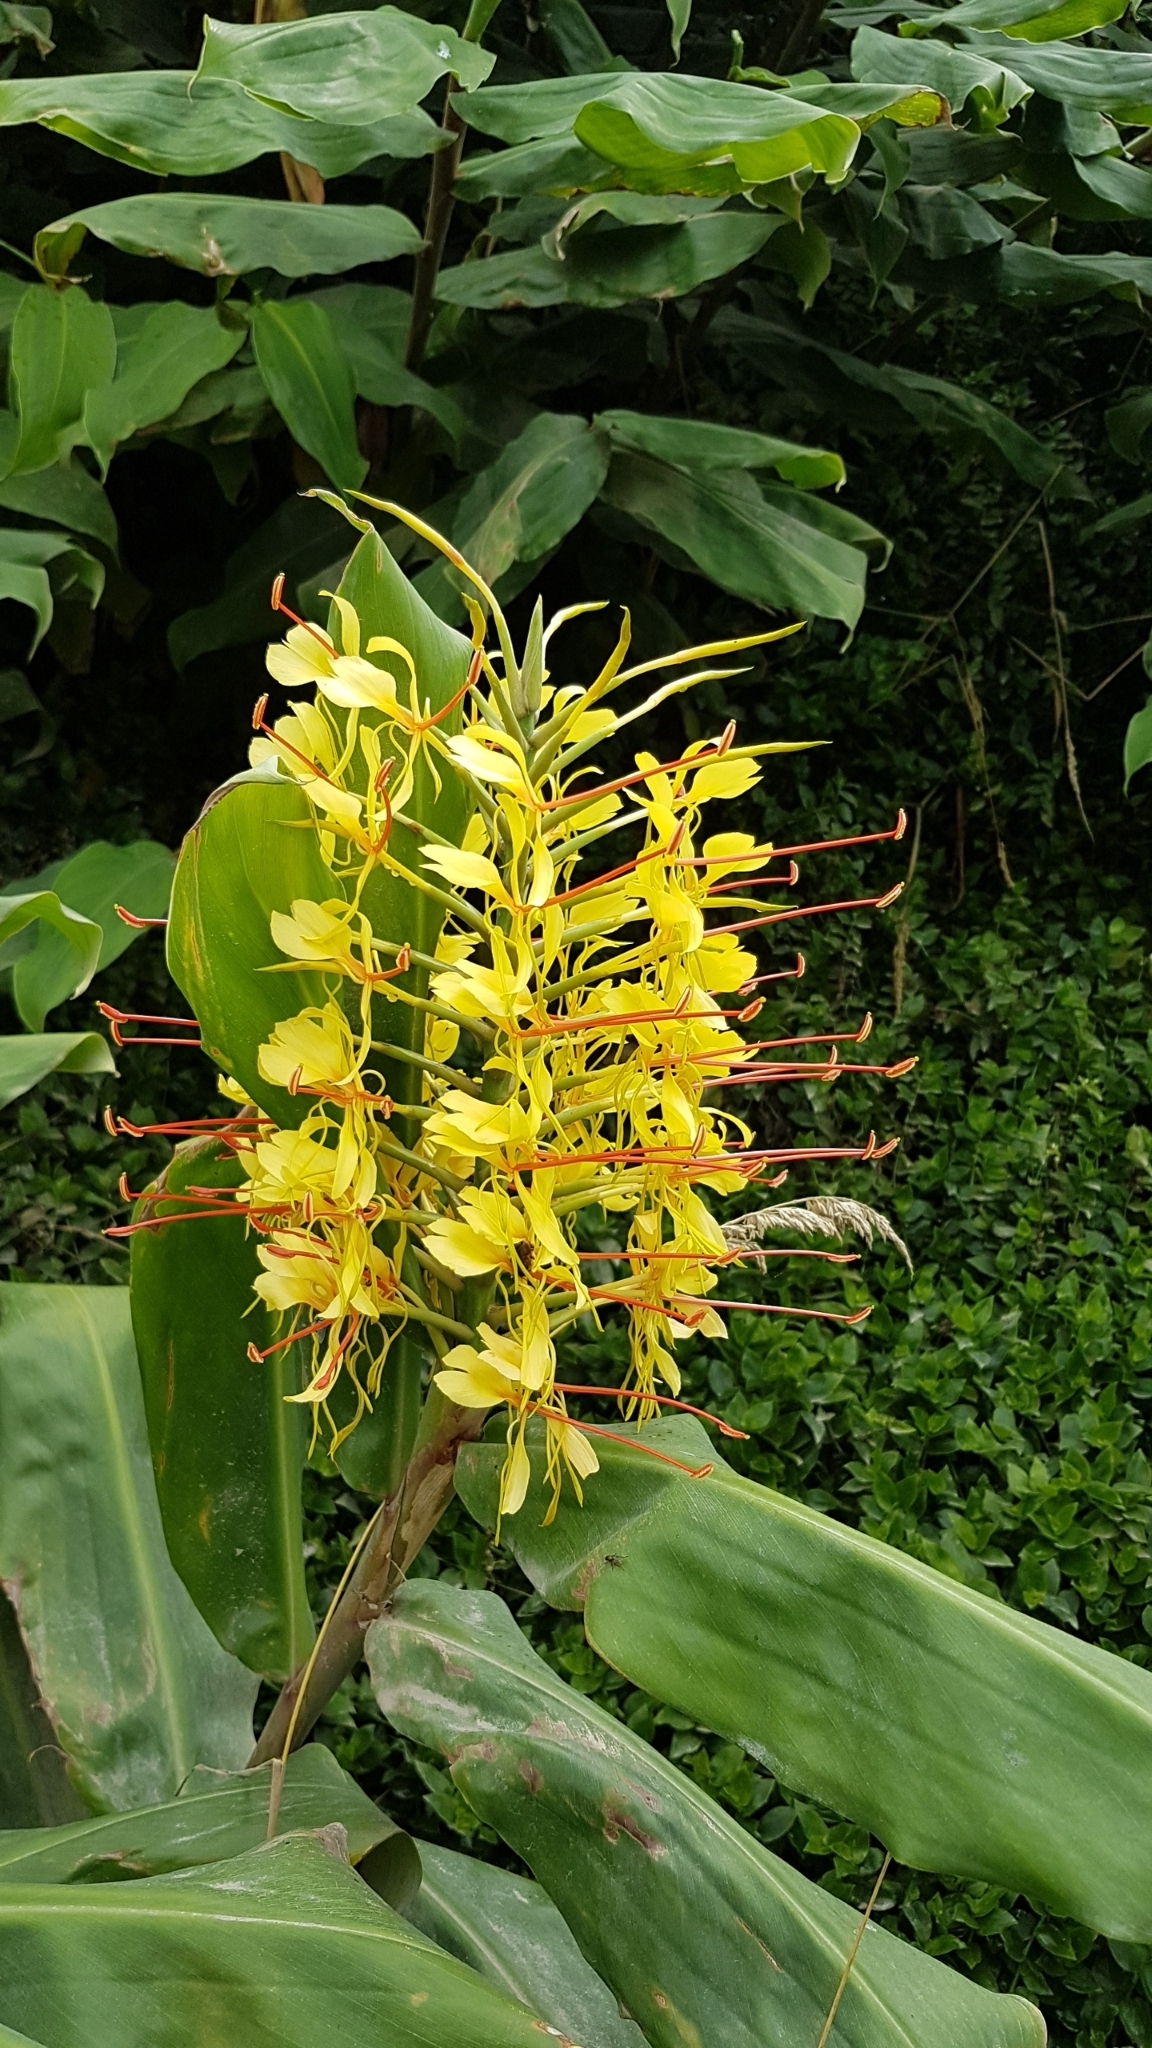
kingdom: Plantae
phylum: Tracheophyta
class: Liliopsida
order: Zingiberales
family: Zingiberaceae
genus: Hedychium
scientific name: Hedychium gardnerianum
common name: Himalayan ginger
